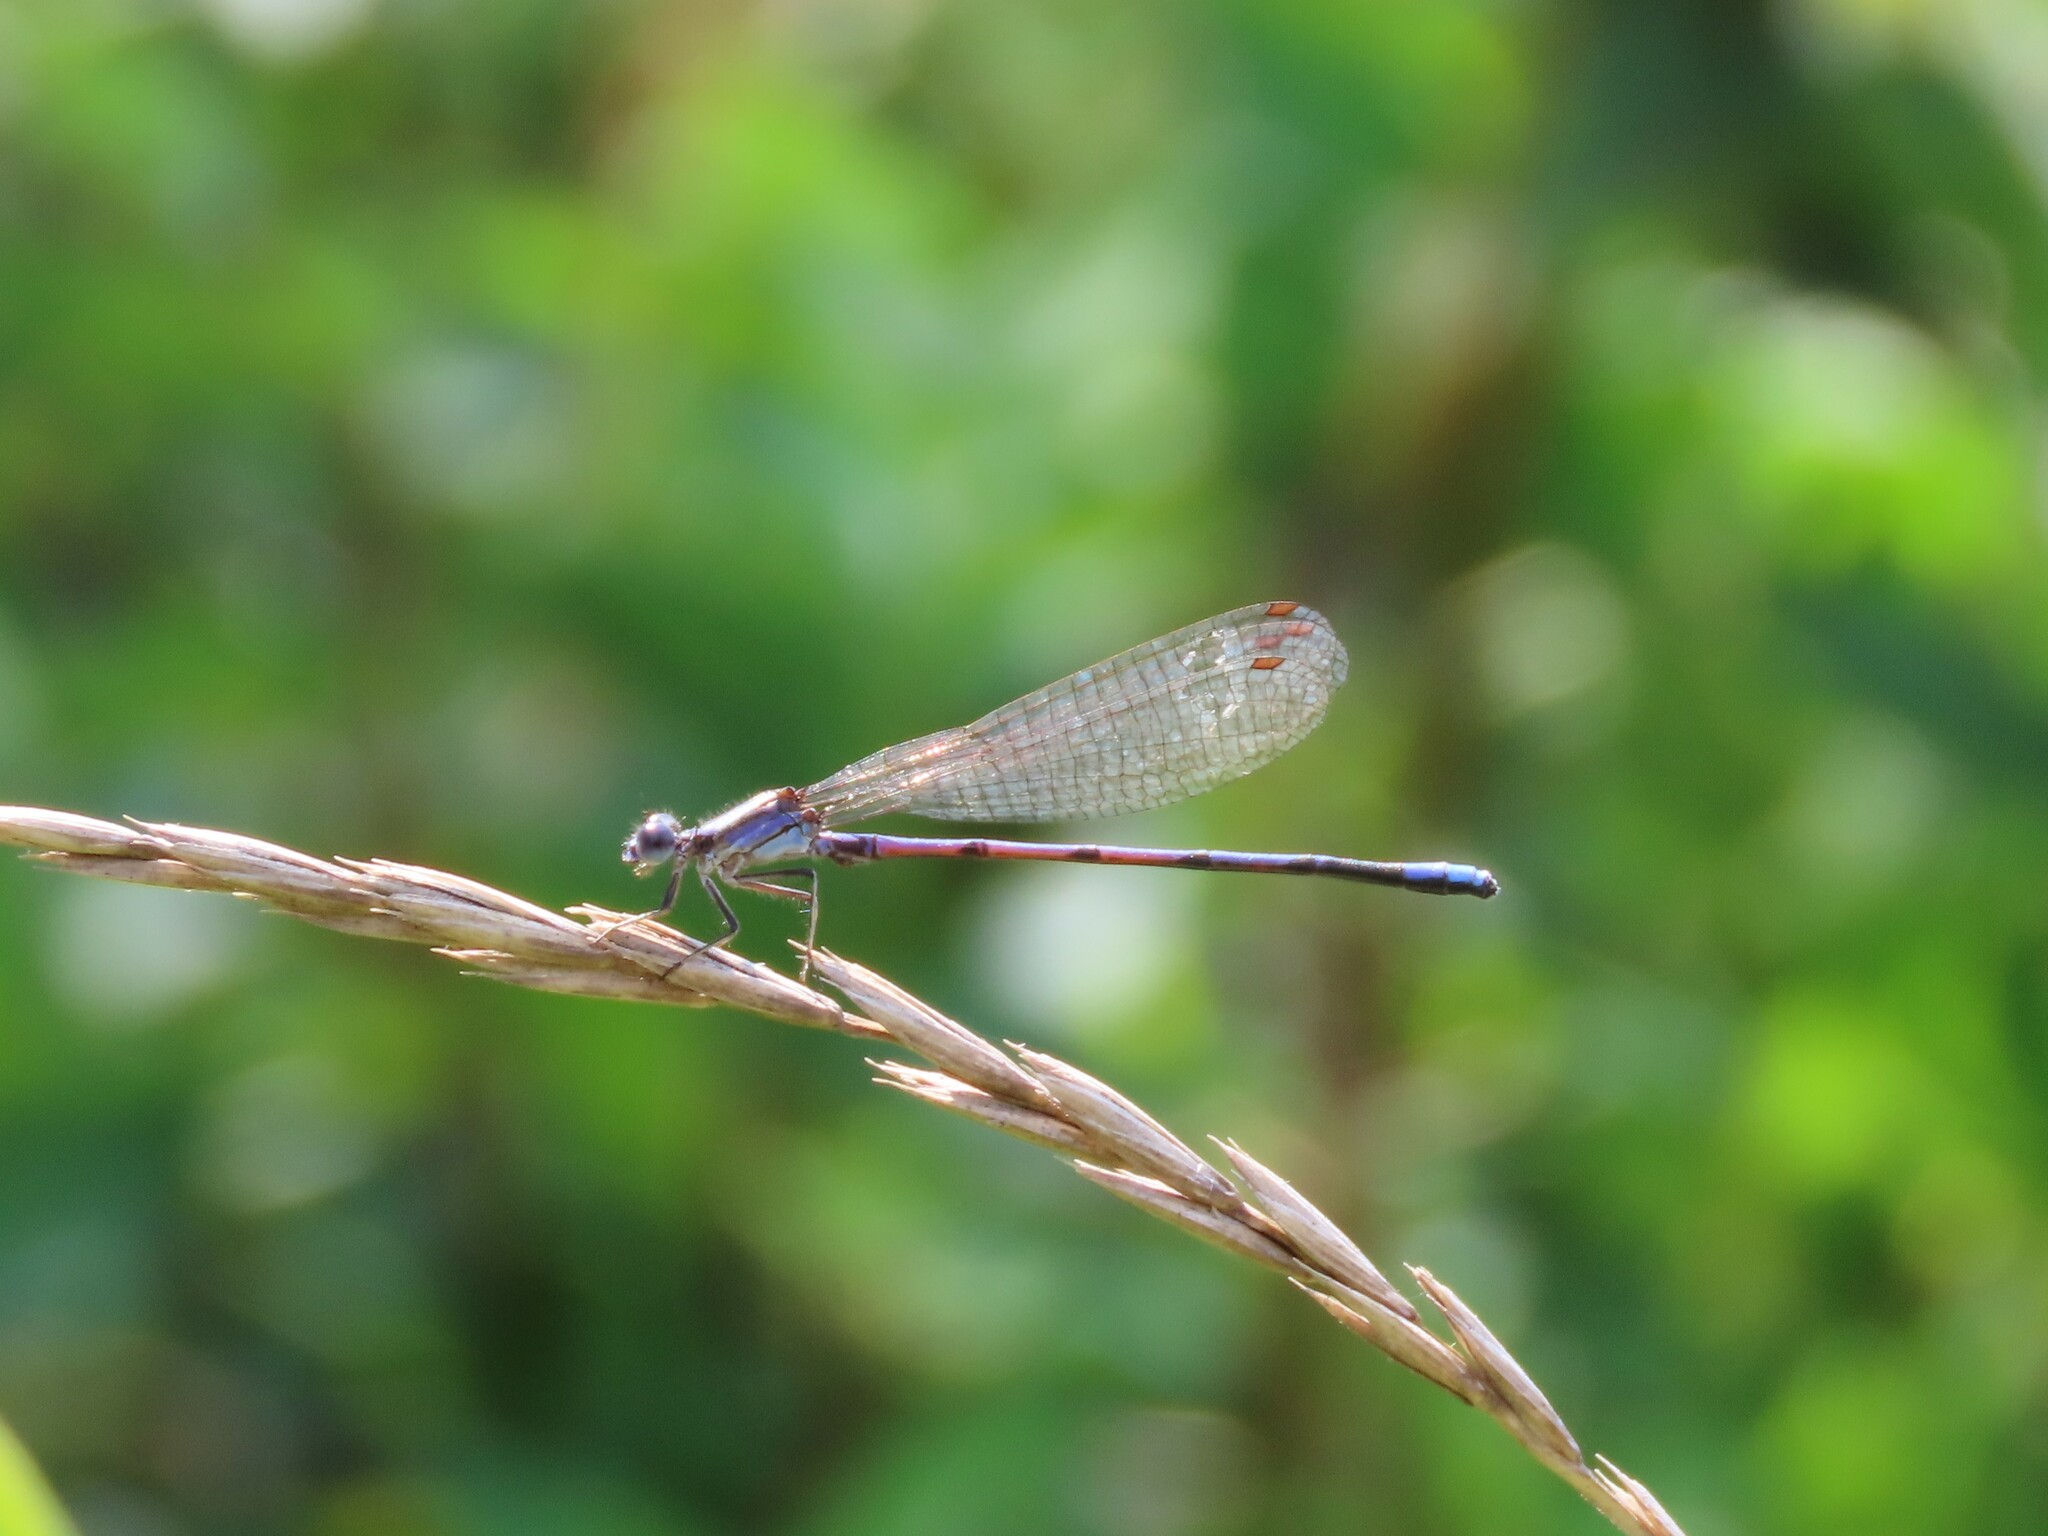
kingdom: Animalia
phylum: Arthropoda
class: Insecta
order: Odonata
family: Coenagrionidae
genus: Argia
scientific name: Argia fumipennis
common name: Variable dancer
